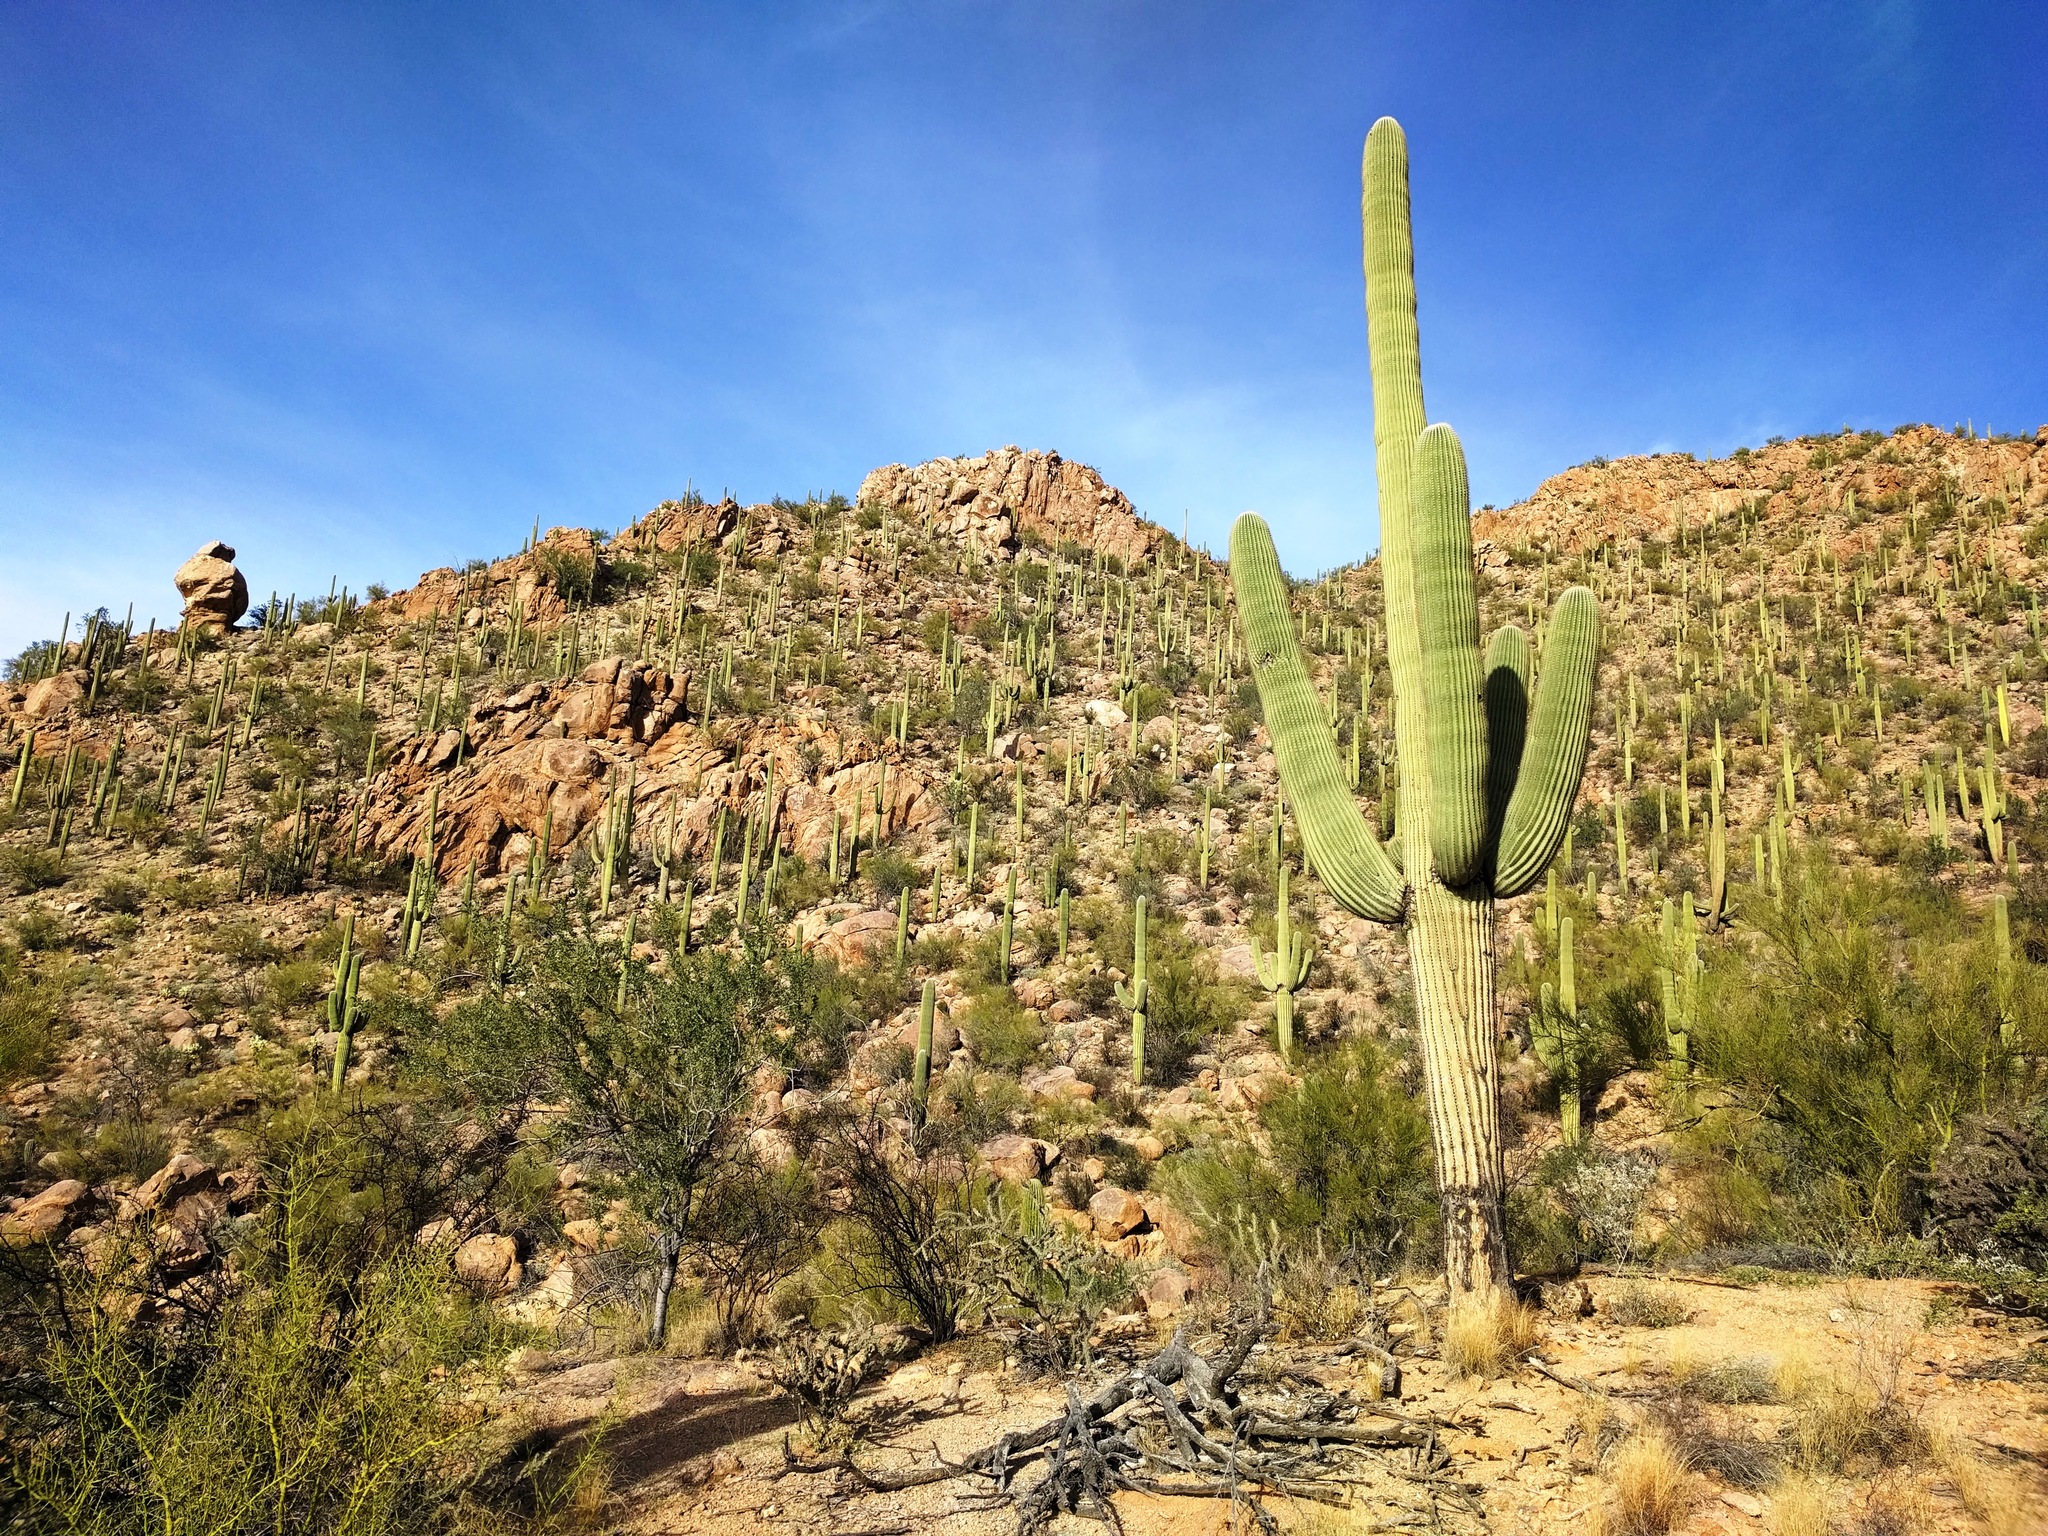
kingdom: Plantae
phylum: Tracheophyta
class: Magnoliopsida
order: Caryophyllales
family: Cactaceae
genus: Carnegiea
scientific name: Carnegiea gigantea
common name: Saguaro
